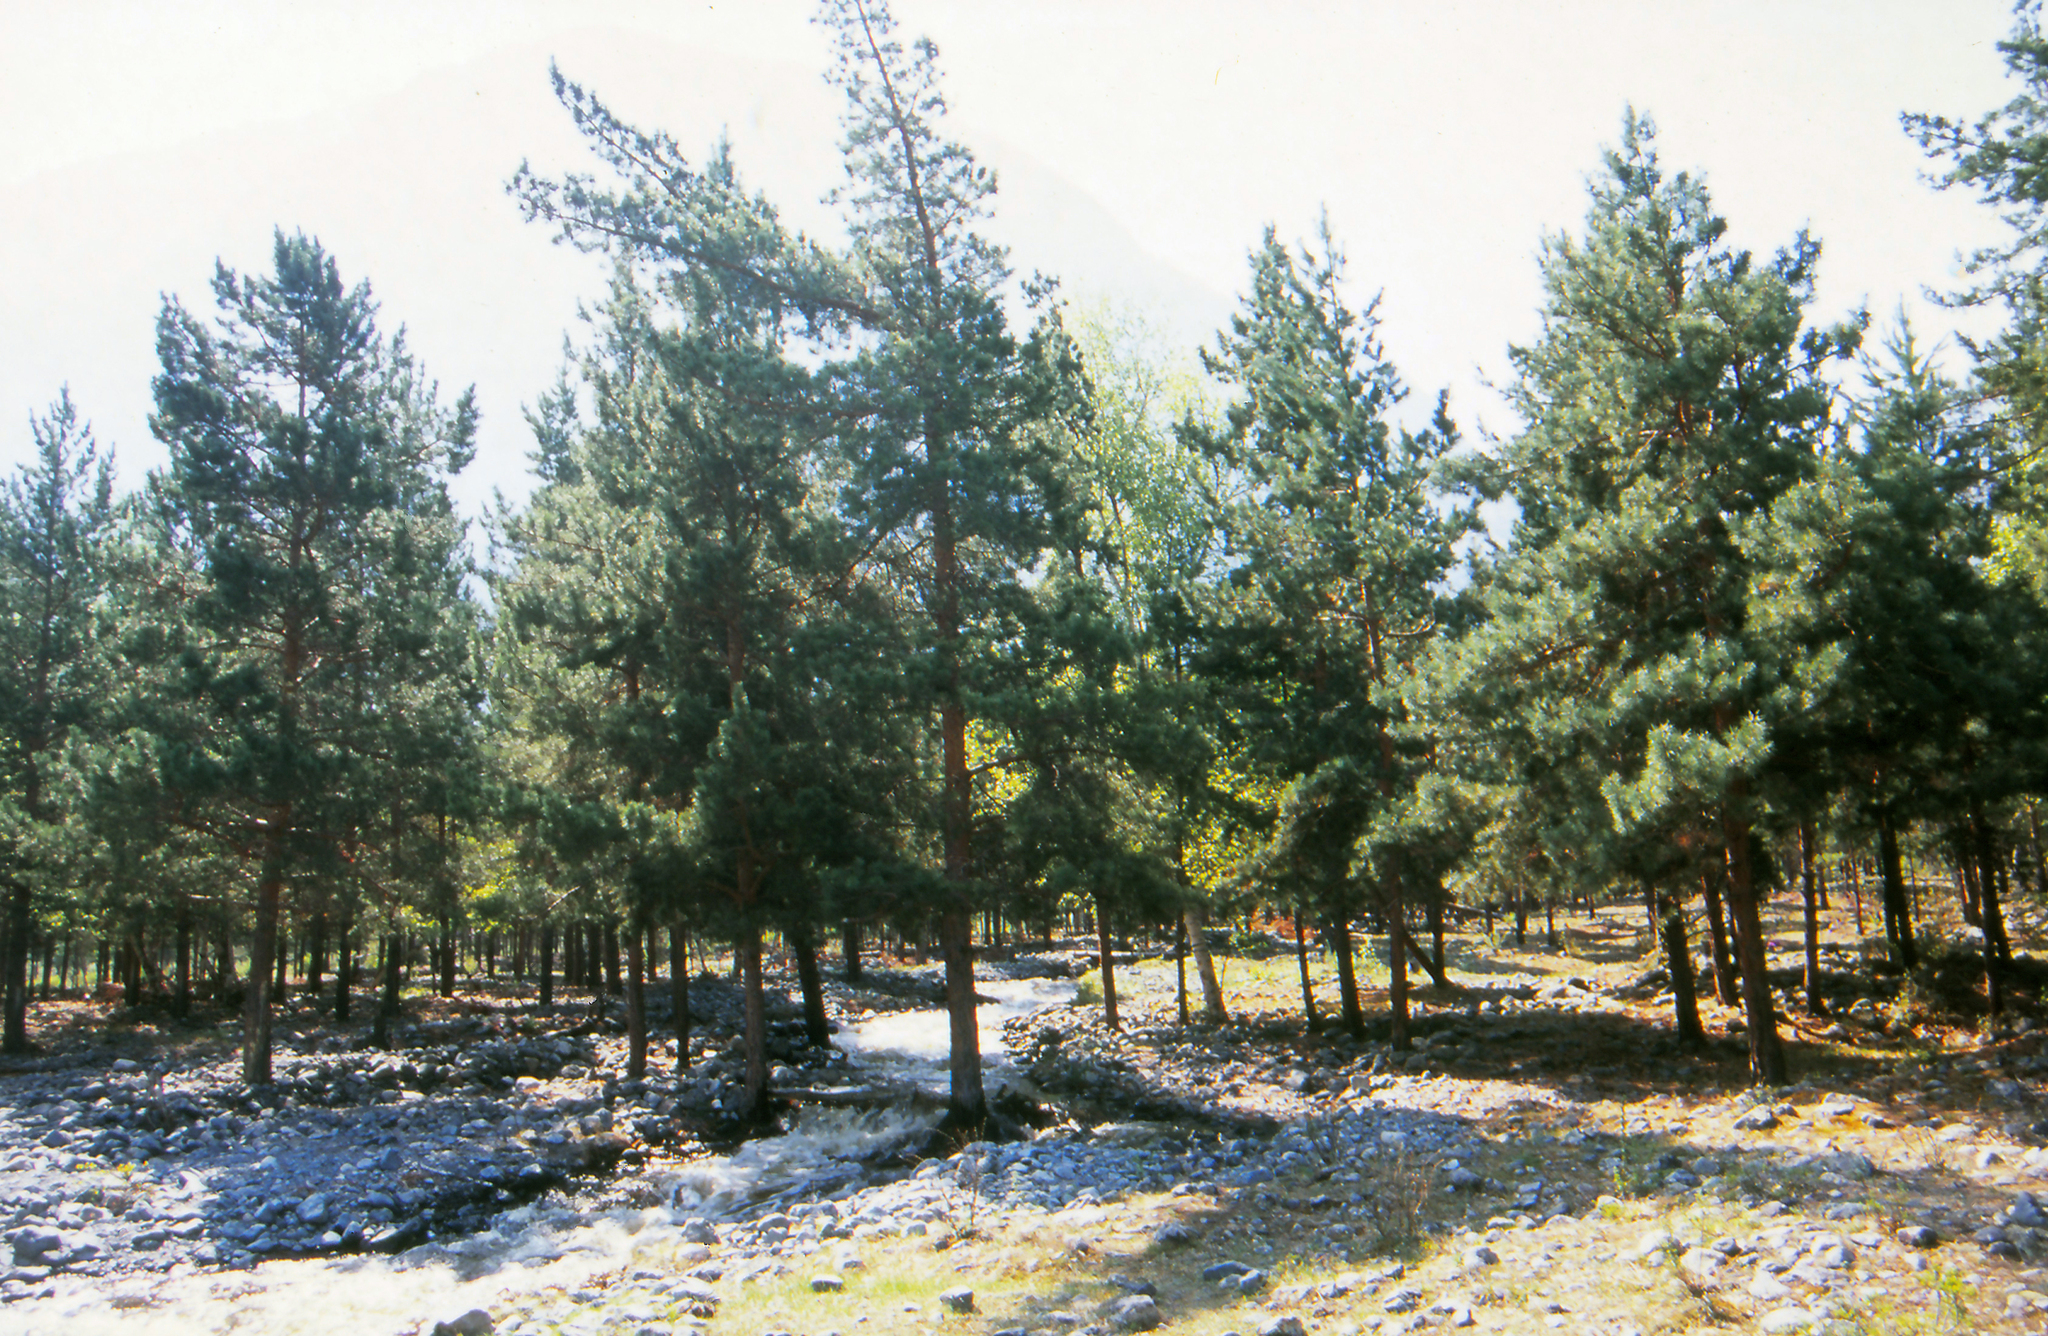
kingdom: Plantae
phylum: Tracheophyta
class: Pinopsida
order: Pinales
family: Pinaceae
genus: Pinus
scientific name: Pinus sylvestris
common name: Scots pine
